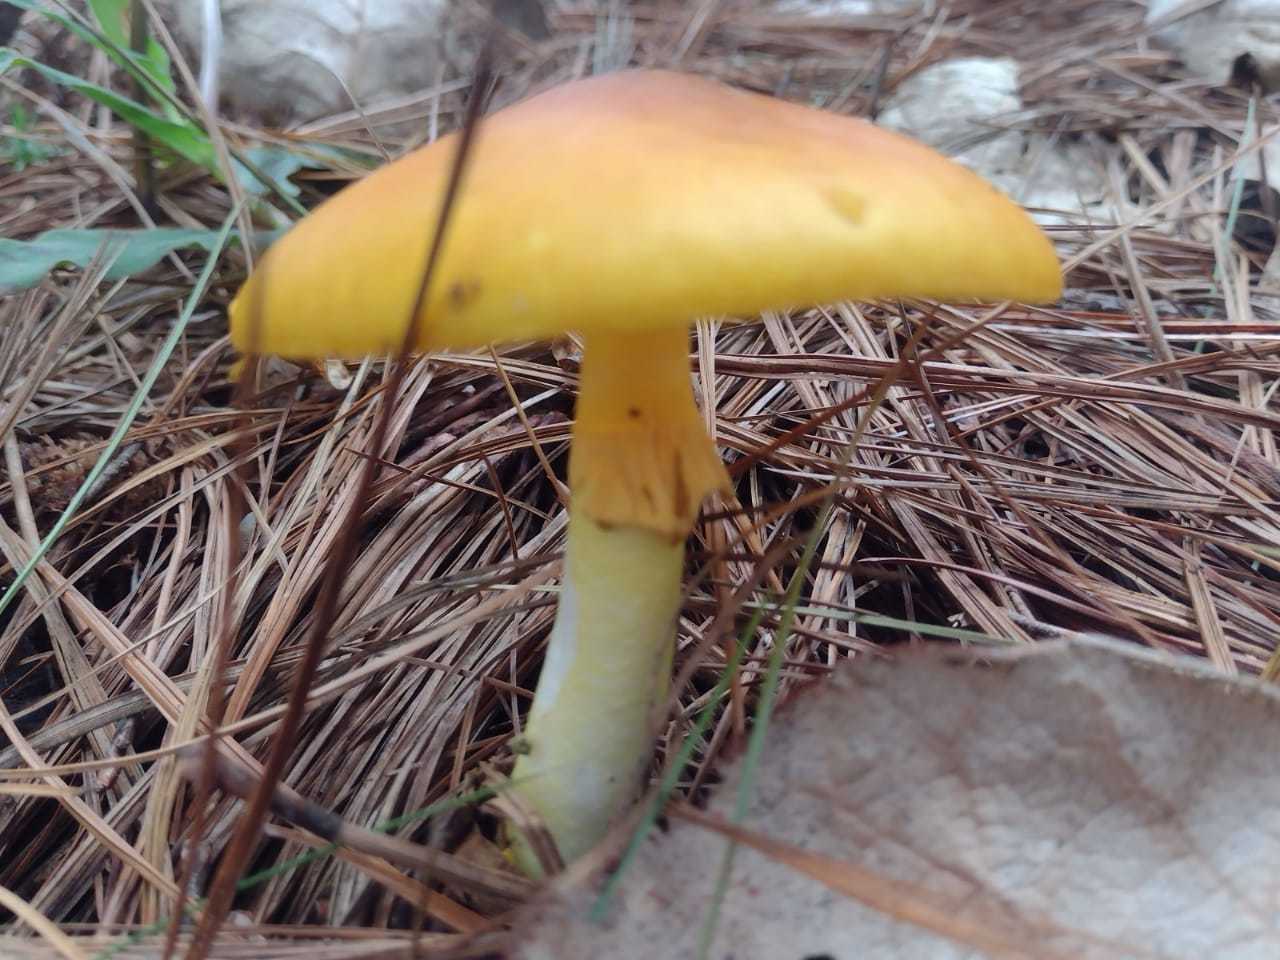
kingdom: Fungi
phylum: Basidiomycota
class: Agaricomycetes
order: Agaricales
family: Amanitaceae
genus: Amanita
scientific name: Amanita flavoconia
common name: Yellow patches
